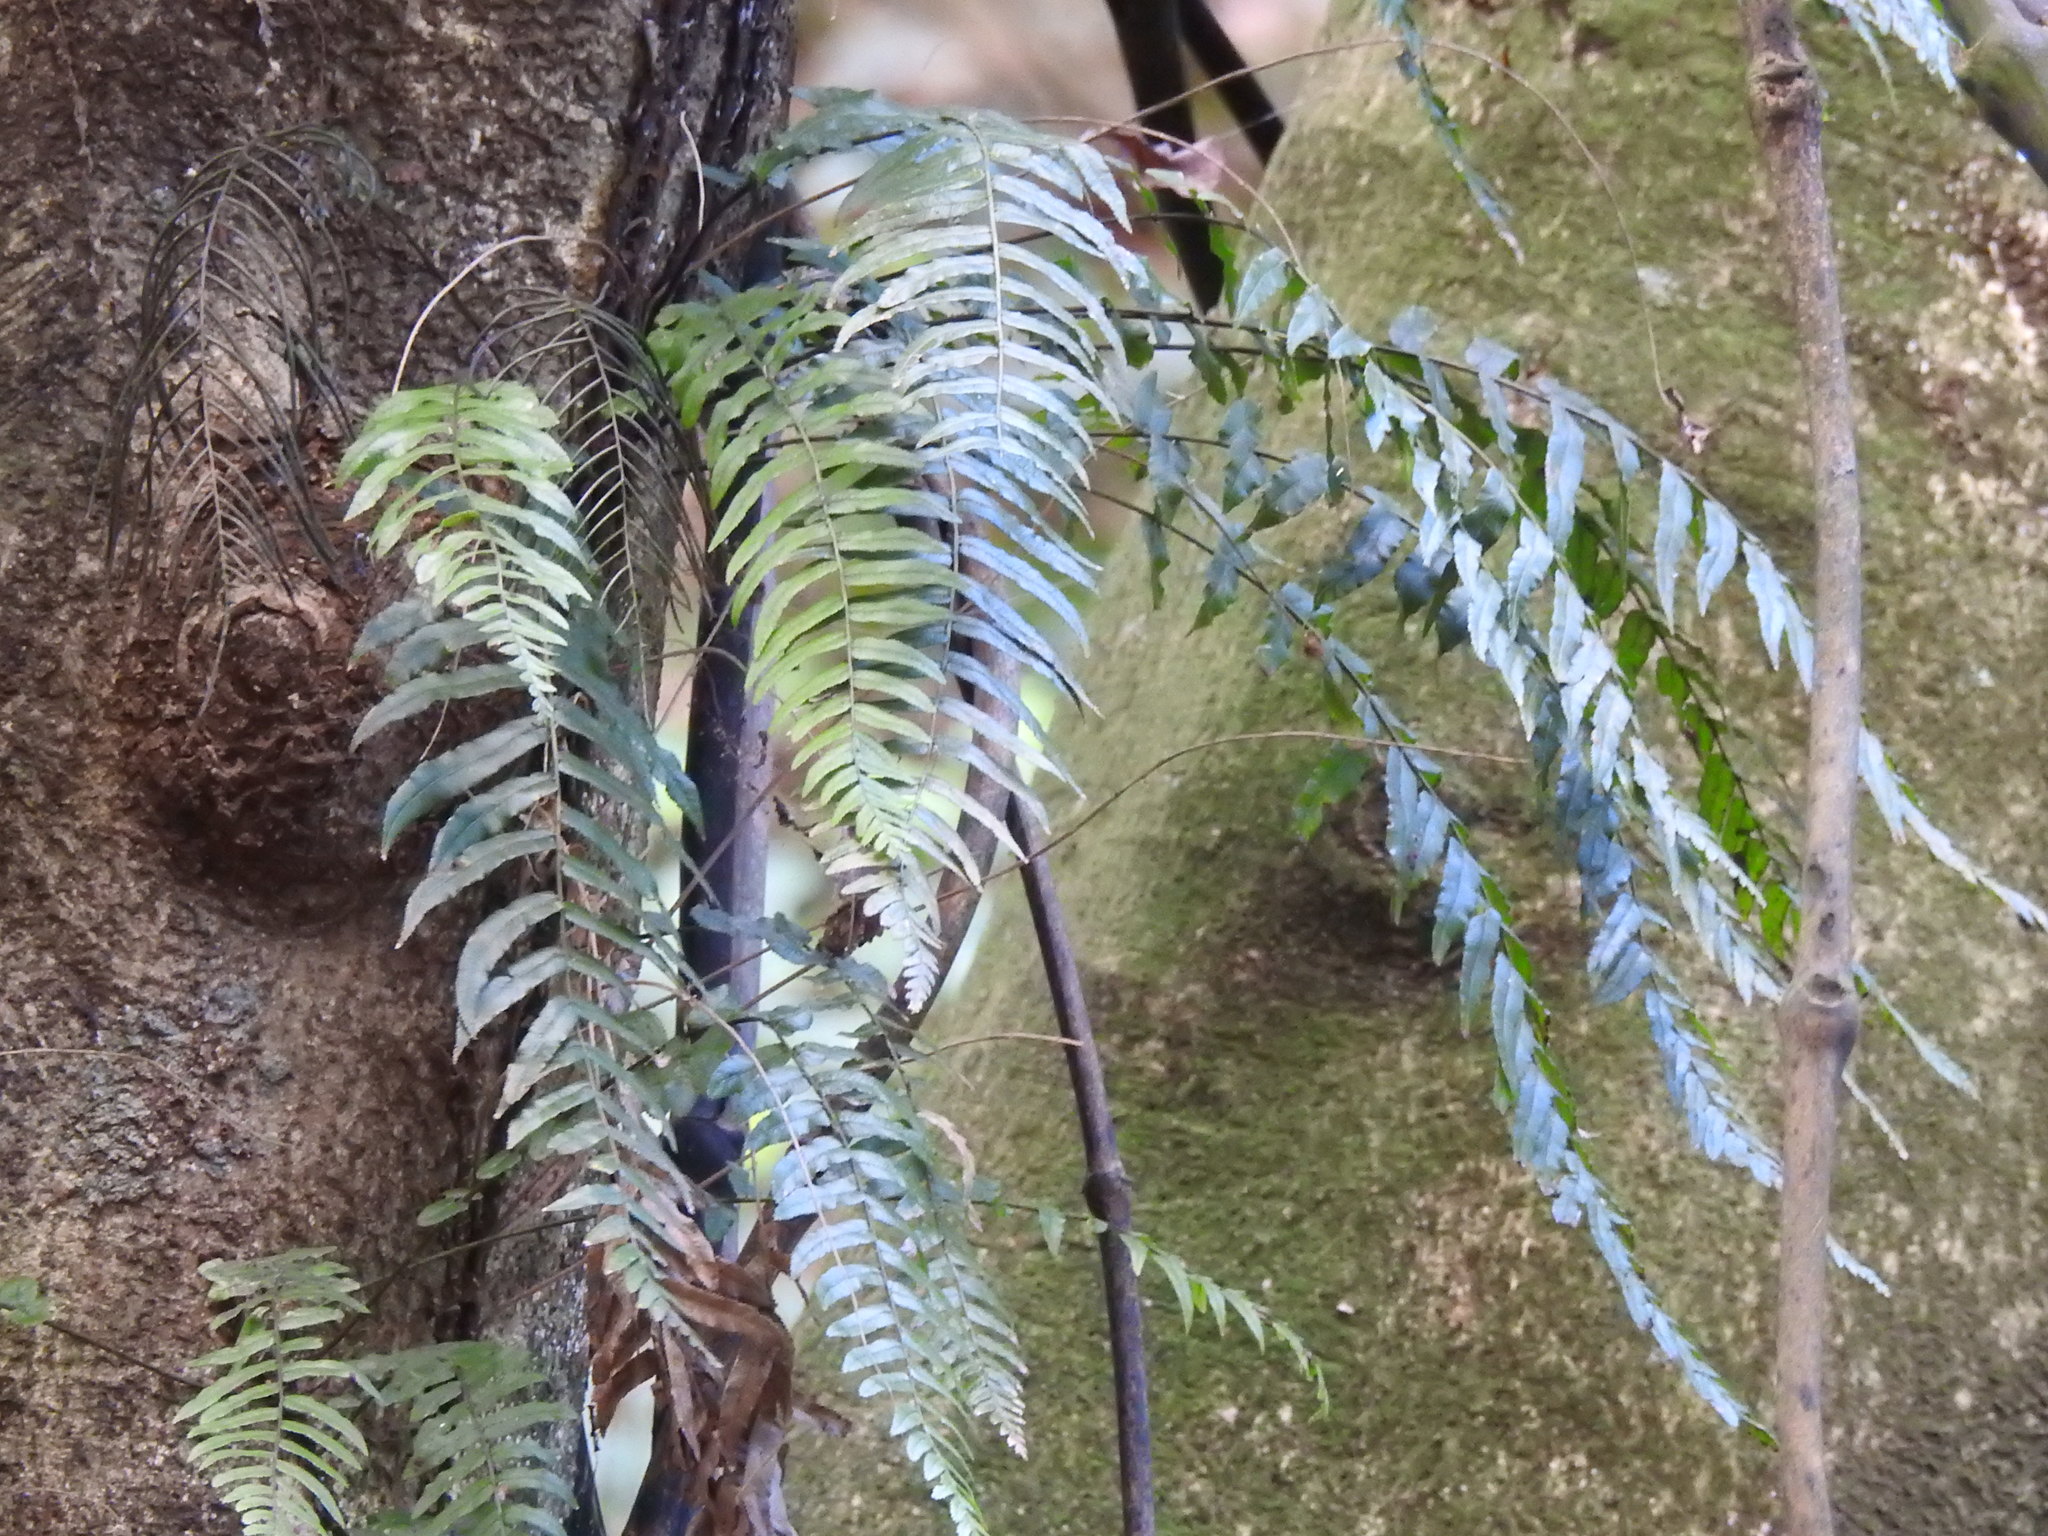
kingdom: Plantae
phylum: Tracheophyta
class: Polypodiopsida
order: Polypodiales
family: Blechnaceae
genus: Icarus
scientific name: Icarus filiformis
